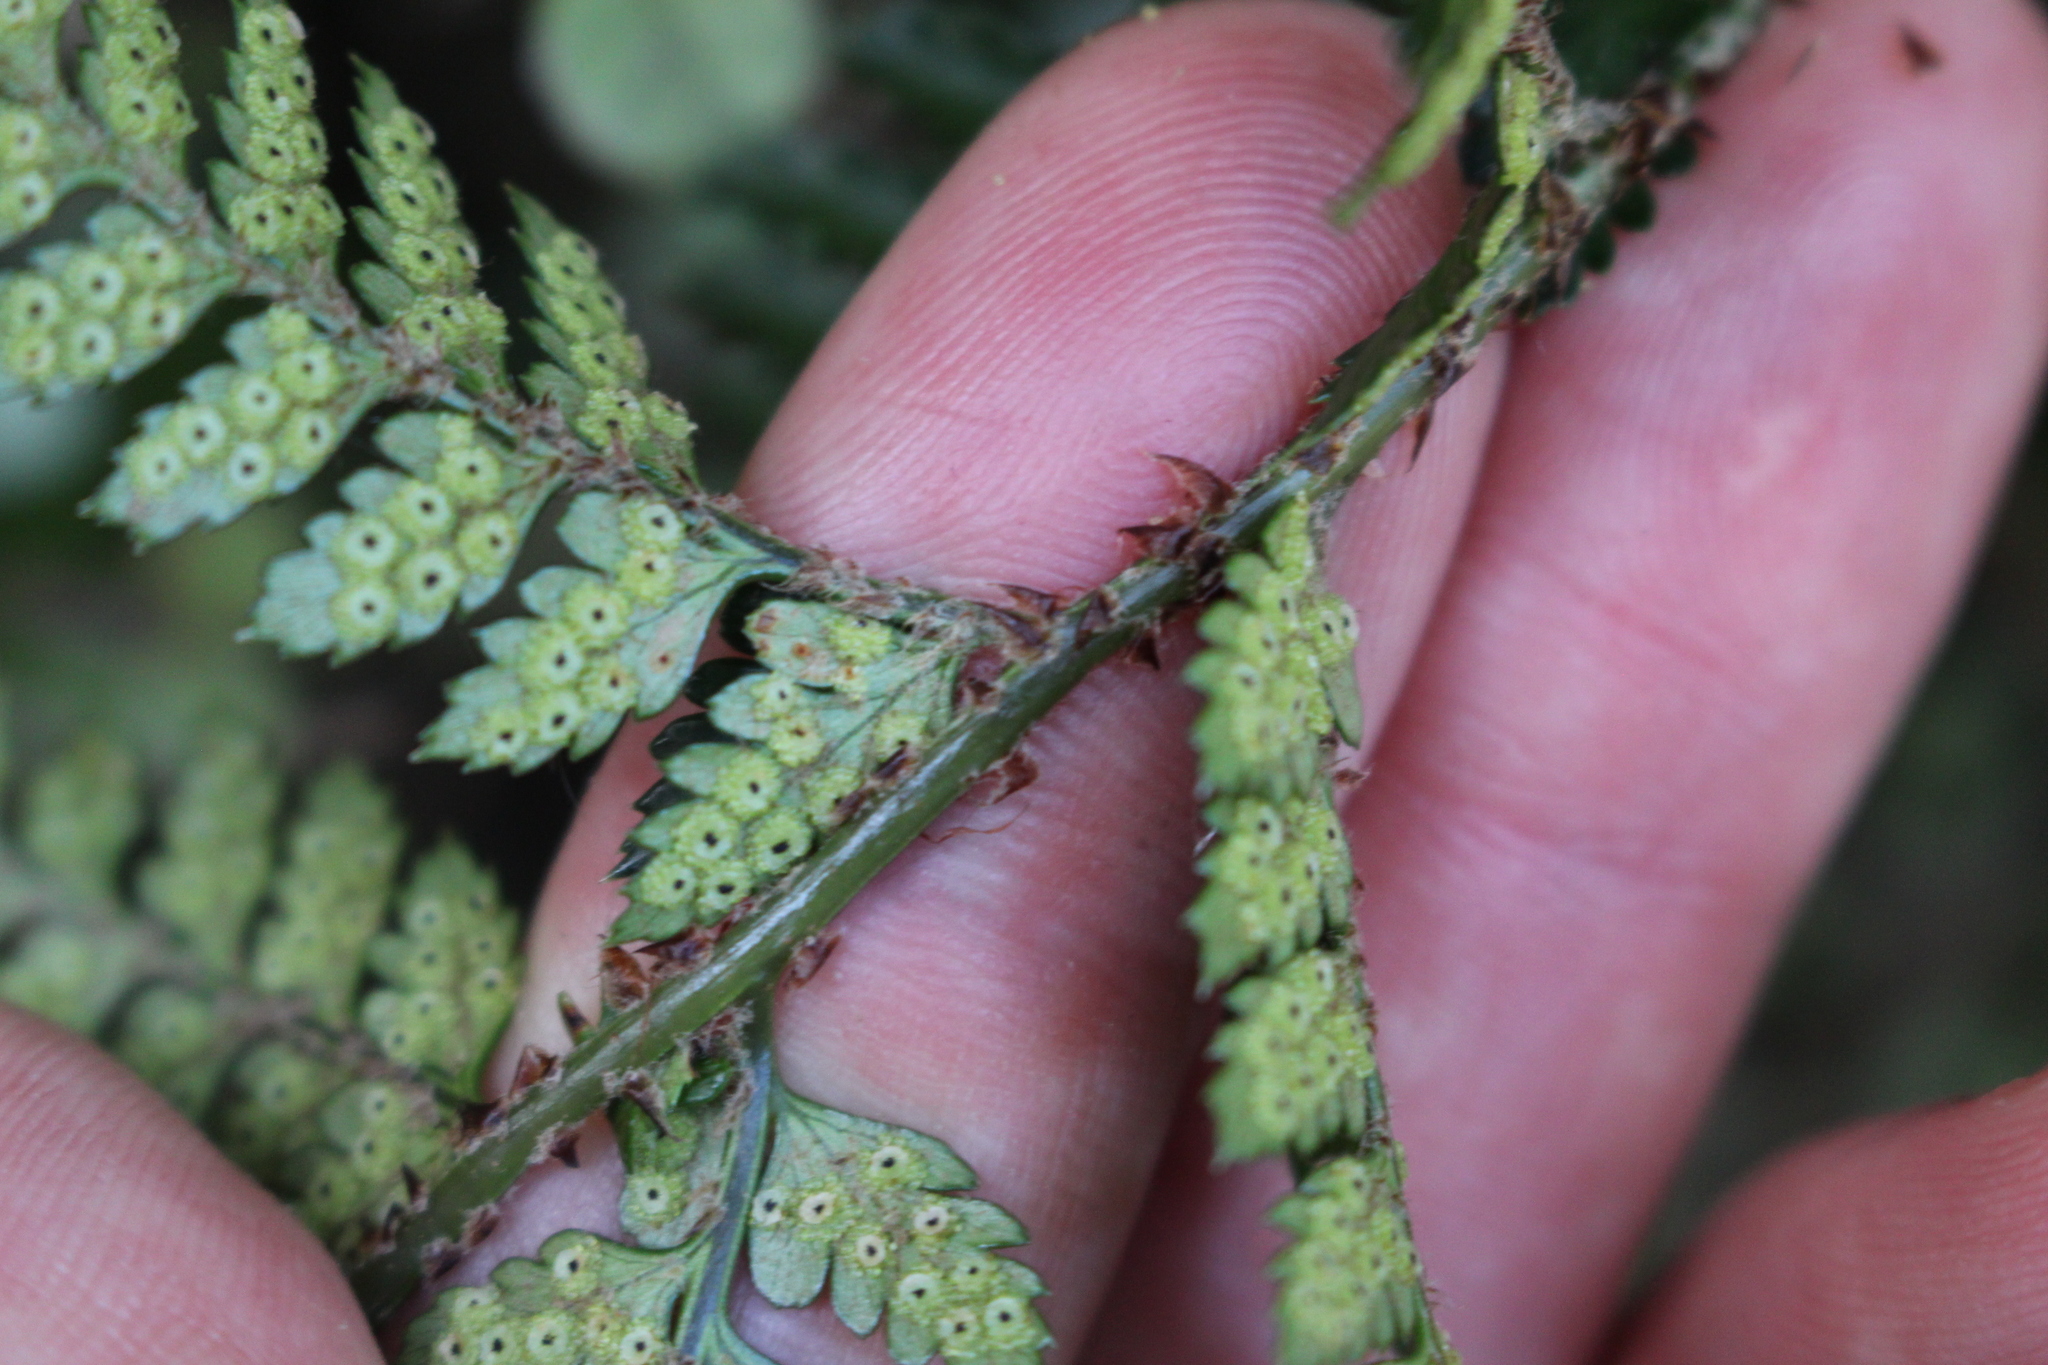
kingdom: Plantae
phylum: Tracheophyta
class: Polypodiopsida
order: Polypodiales
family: Dryopteridaceae
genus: Polystichum
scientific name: Polystichum oculatum
